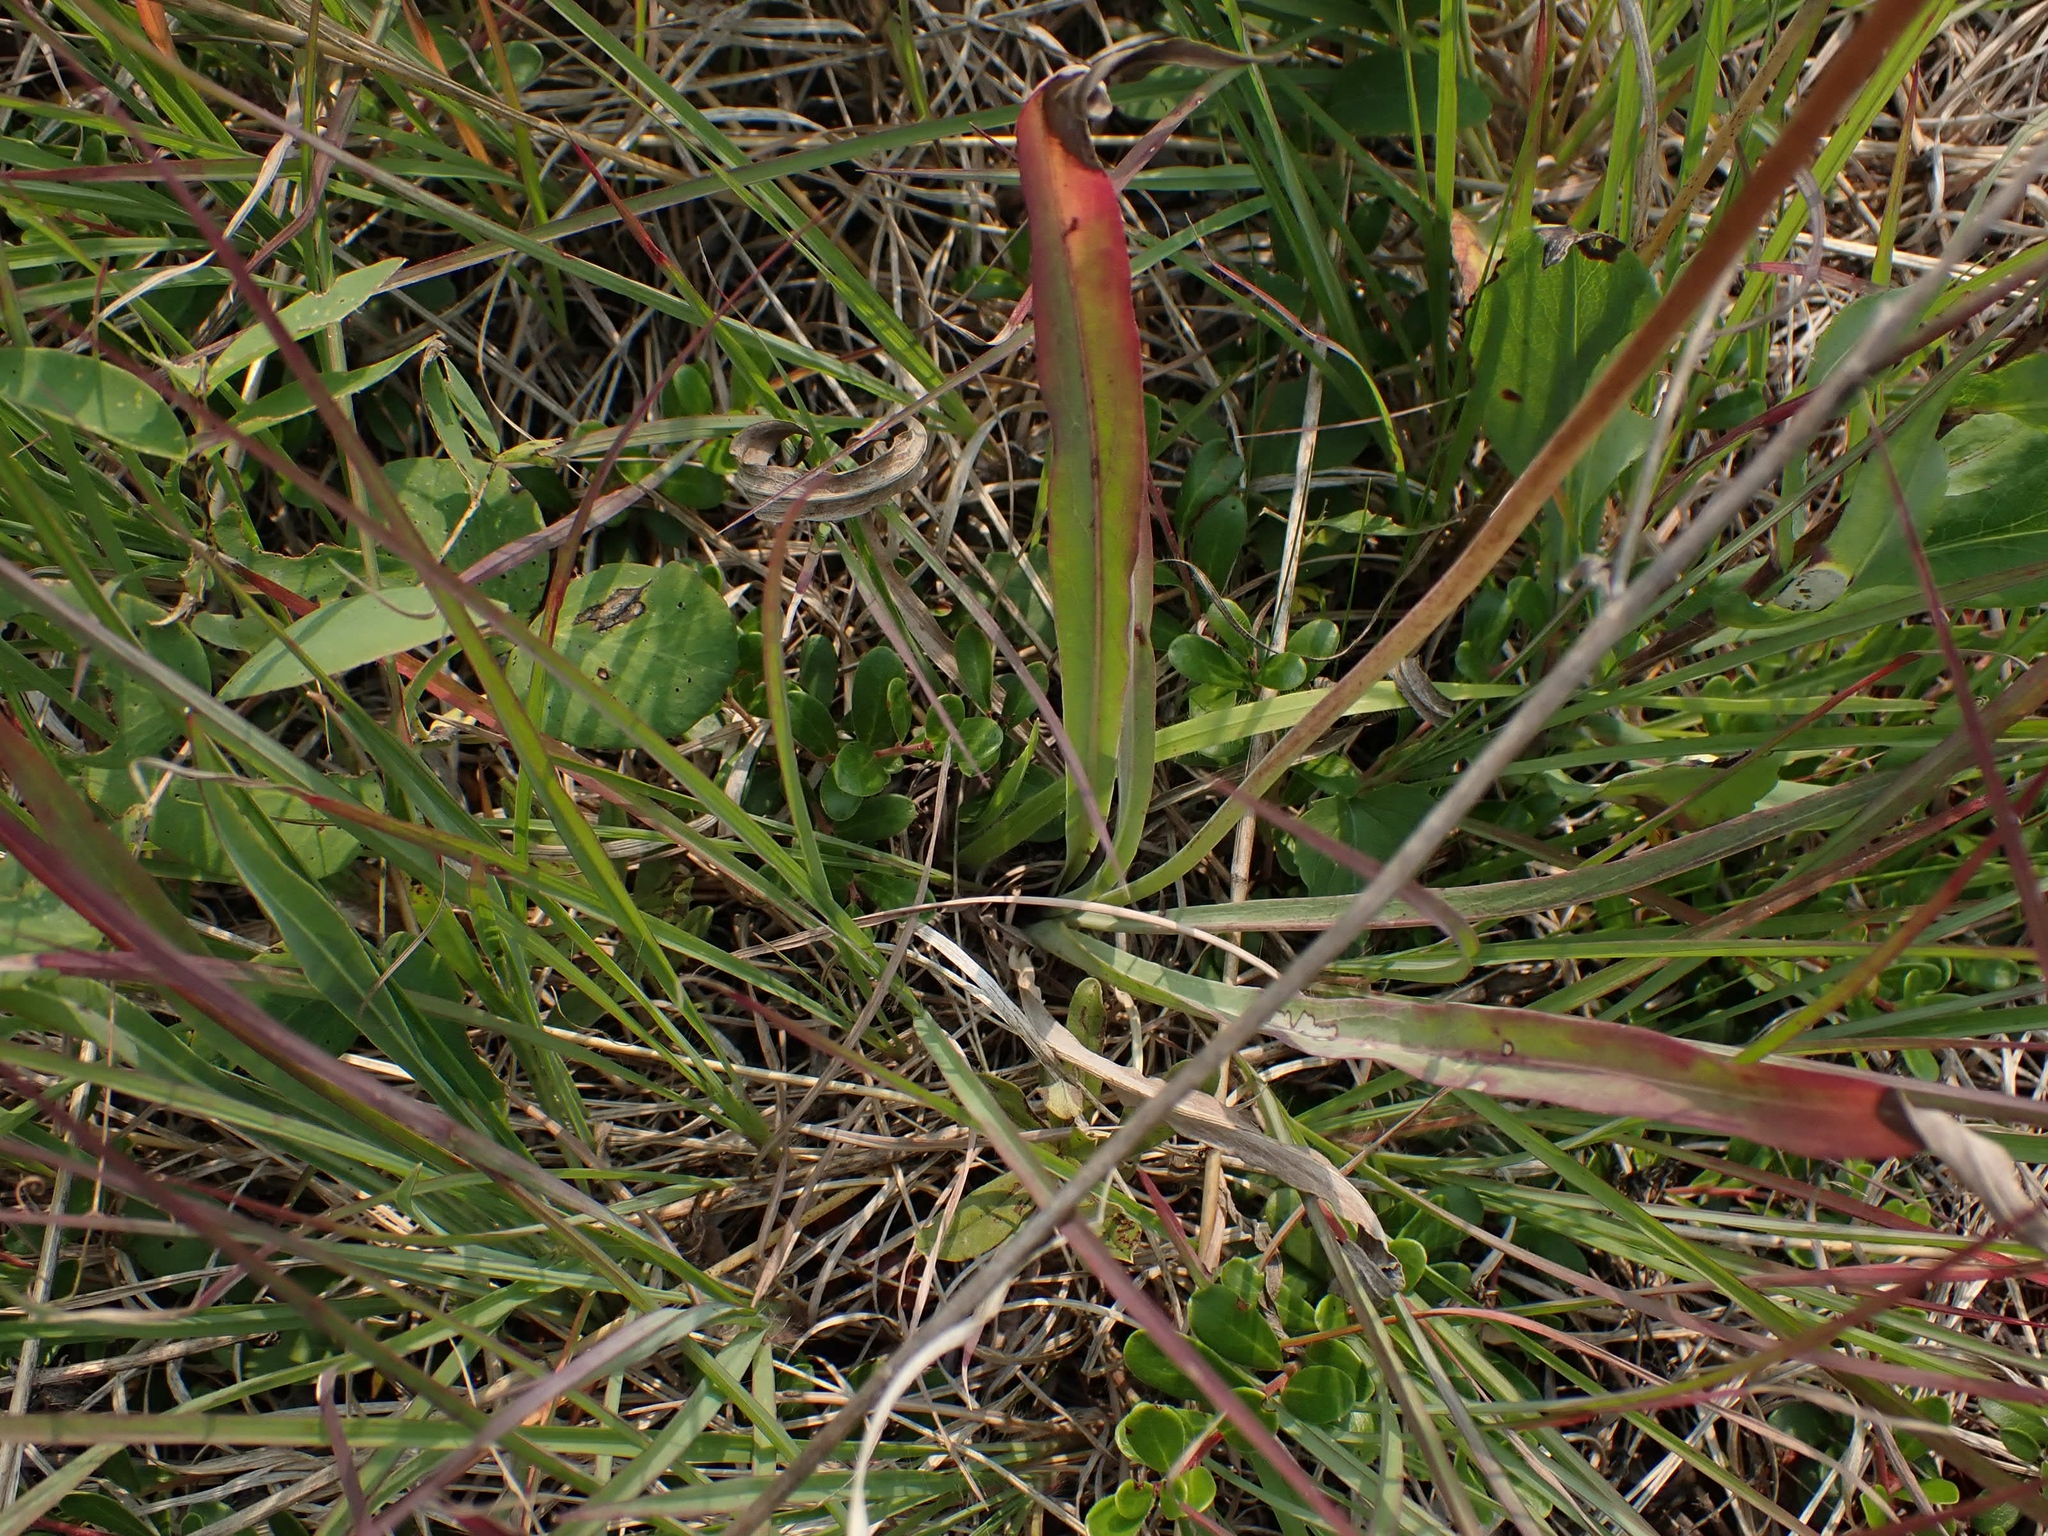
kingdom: Plantae
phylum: Tracheophyta
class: Magnoliopsida
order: Asterales
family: Asteraceae
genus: Agoseris
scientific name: Agoseris glauca
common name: Prairie agoseris
